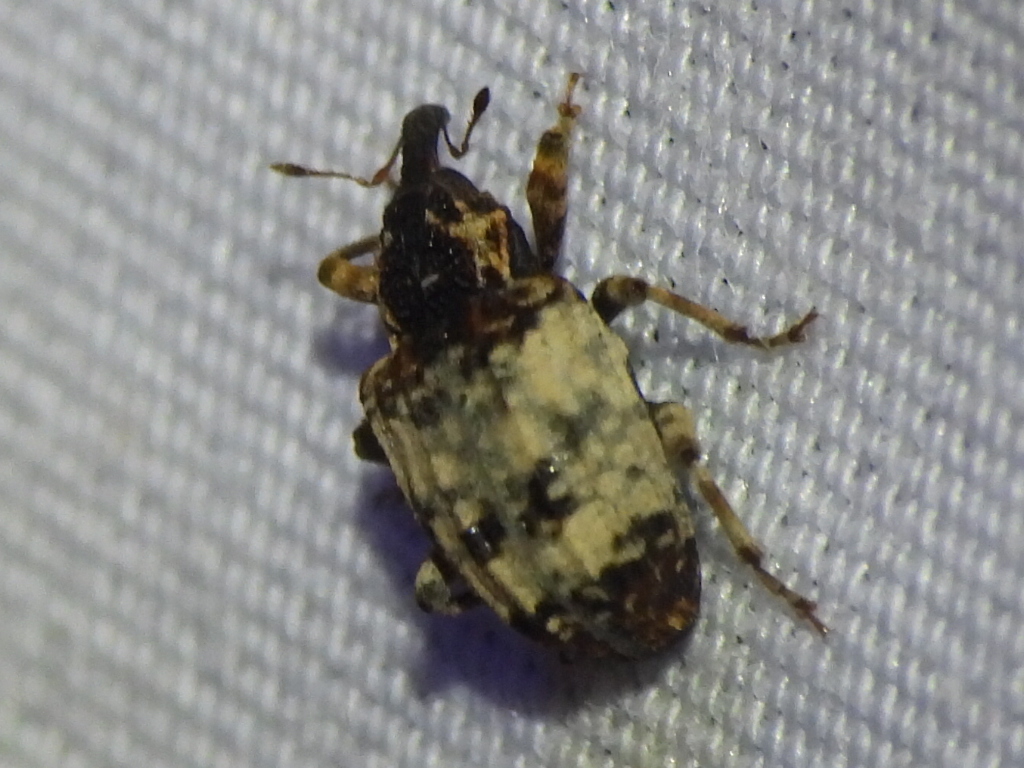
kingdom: Animalia
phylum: Arthropoda
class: Insecta
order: Coleoptera
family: Curculionidae
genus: Conotrachelus
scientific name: Conotrachelus leucophaeatus
